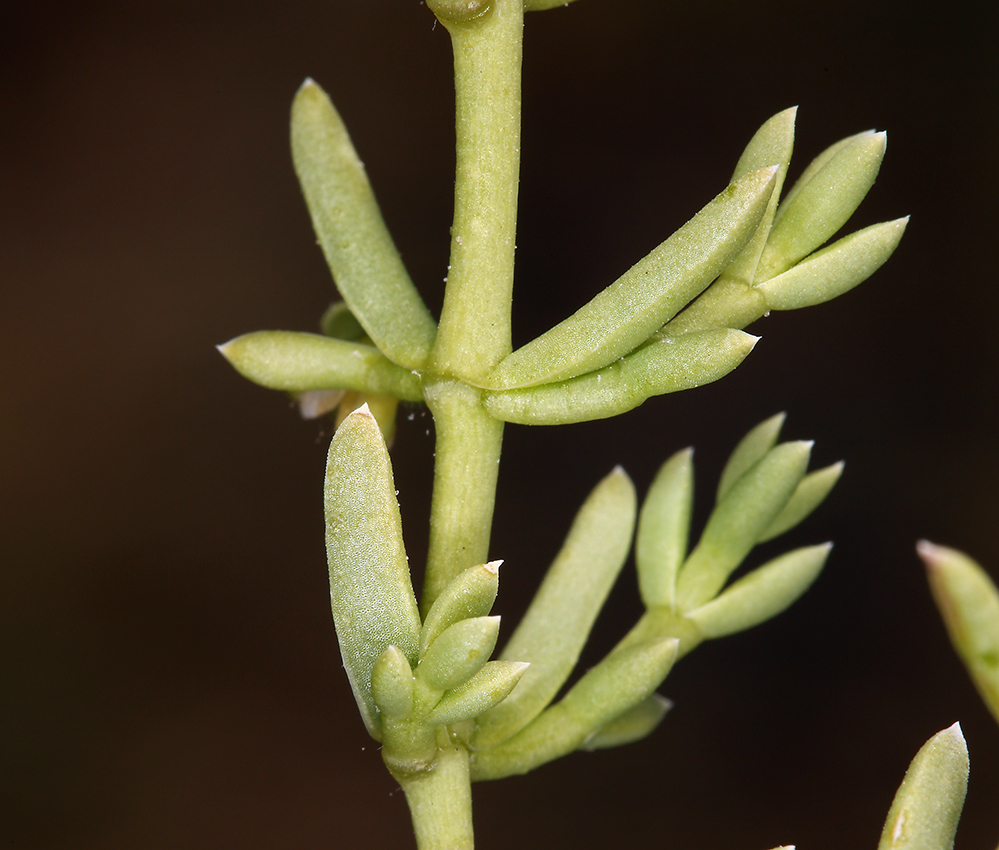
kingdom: Plantae
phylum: Tracheophyta
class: Magnoliopsida
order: Caryophyllales
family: Amaranthaceae
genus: Nitrophila
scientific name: Nitrophila occidentalis
